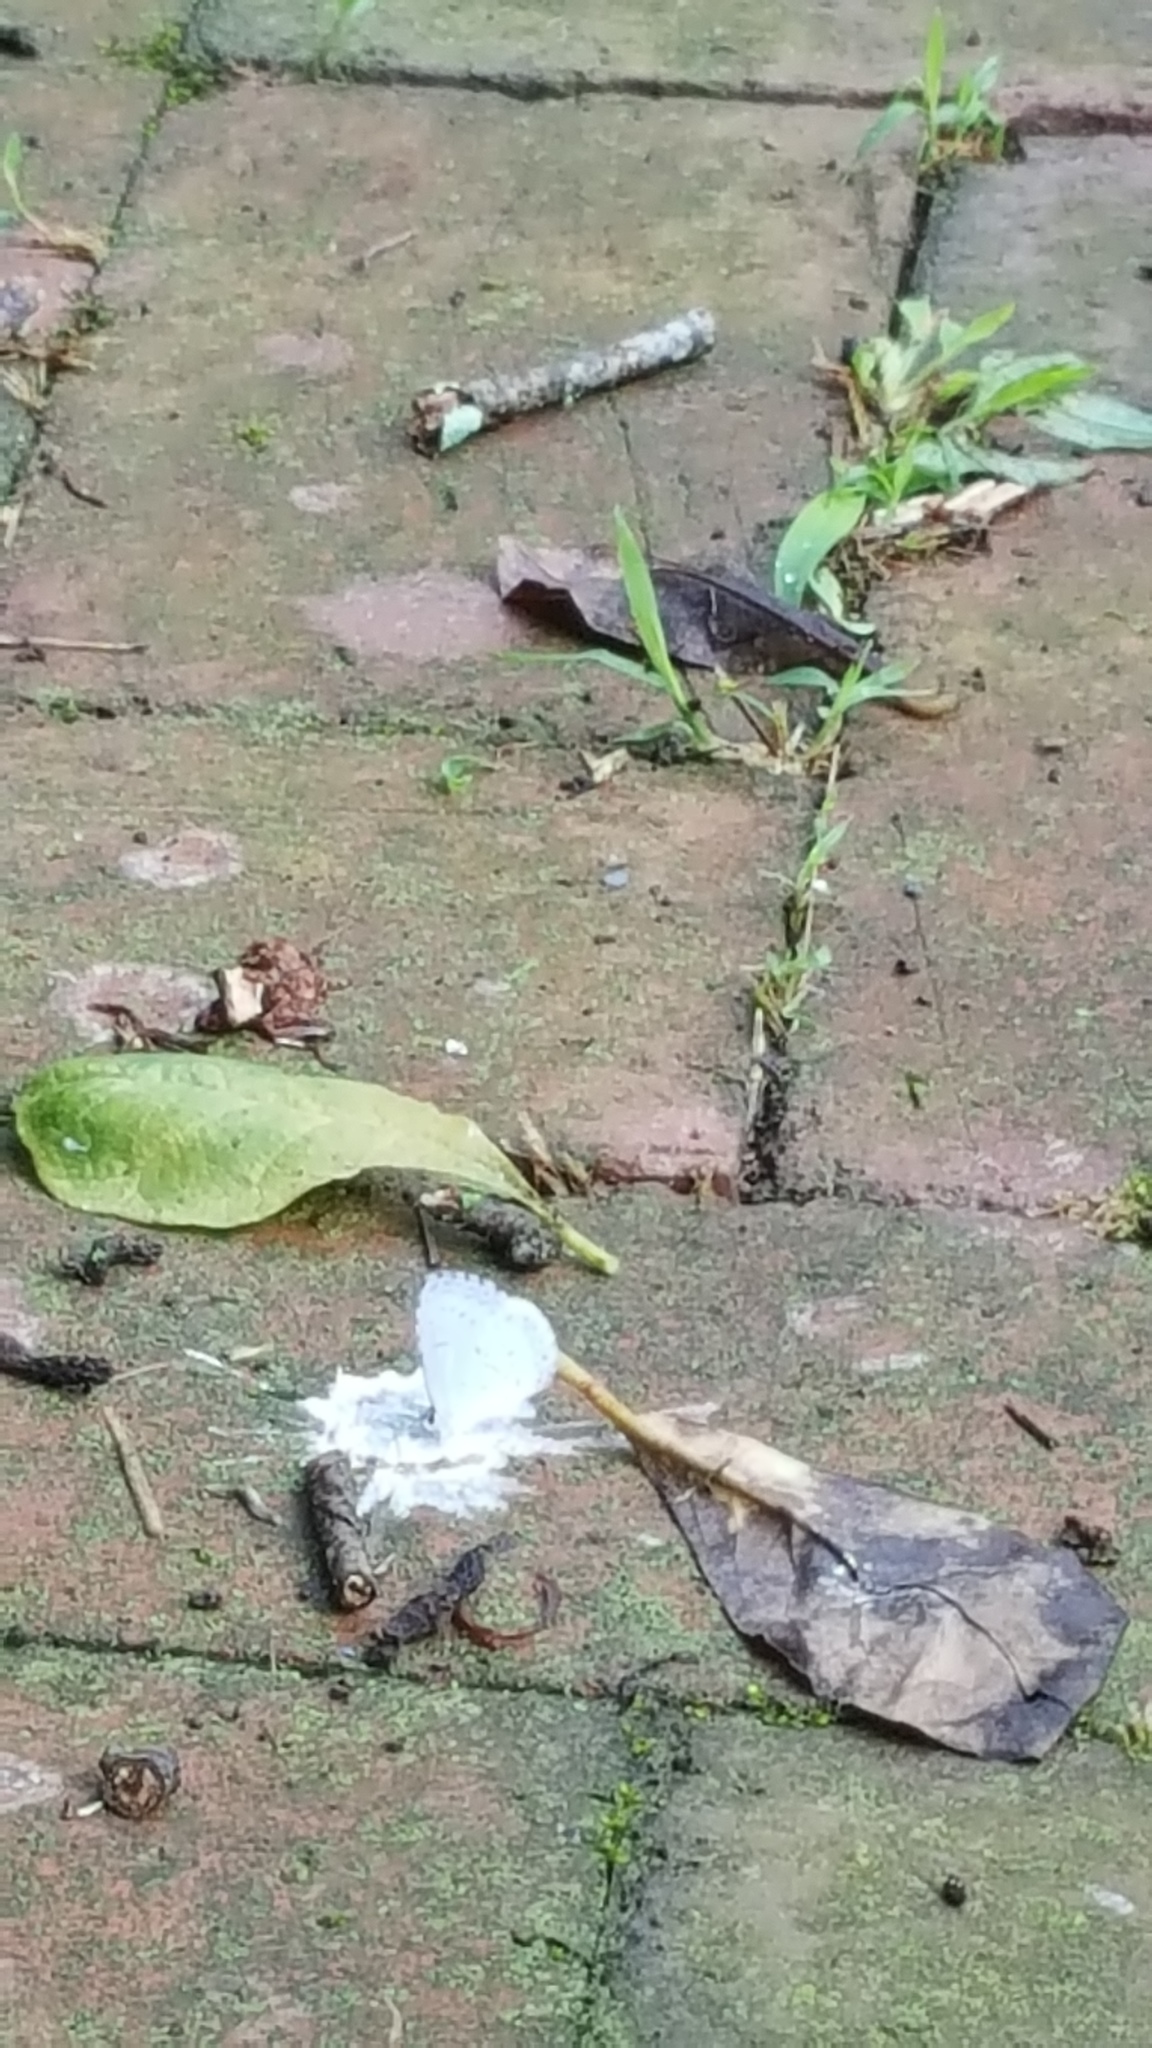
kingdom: Animalia
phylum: Arthropoda
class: Insecta
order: Lepidoptera
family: Lycaenidae
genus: Cyaniris
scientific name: Cyaniris neglecta
